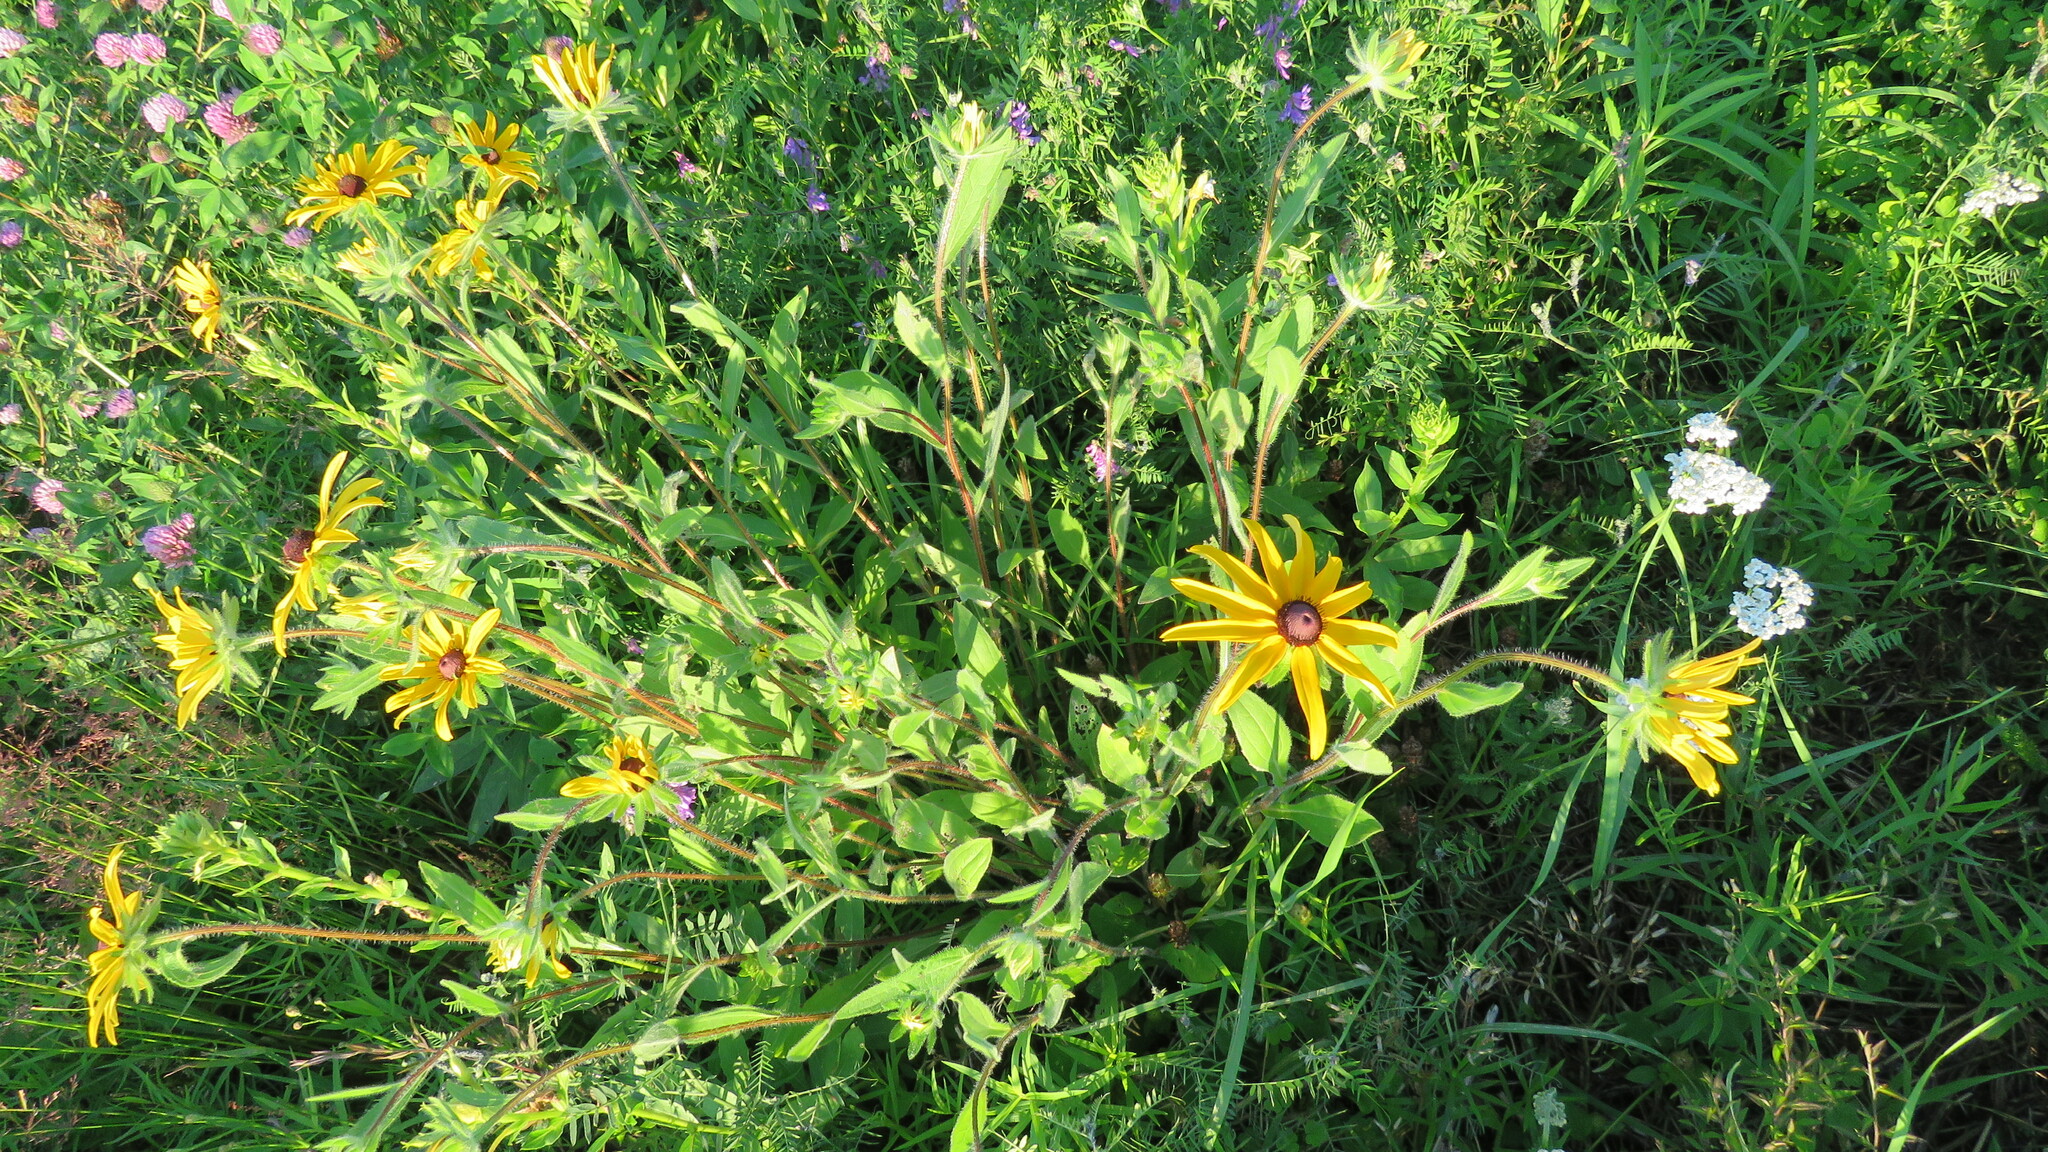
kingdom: Plantae
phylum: Tracheophyta
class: Magnoliopsida
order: Asterales
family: Asteraceae
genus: Rudbeckia
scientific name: Rudbeckia hirta
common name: Black-eyed-susan
